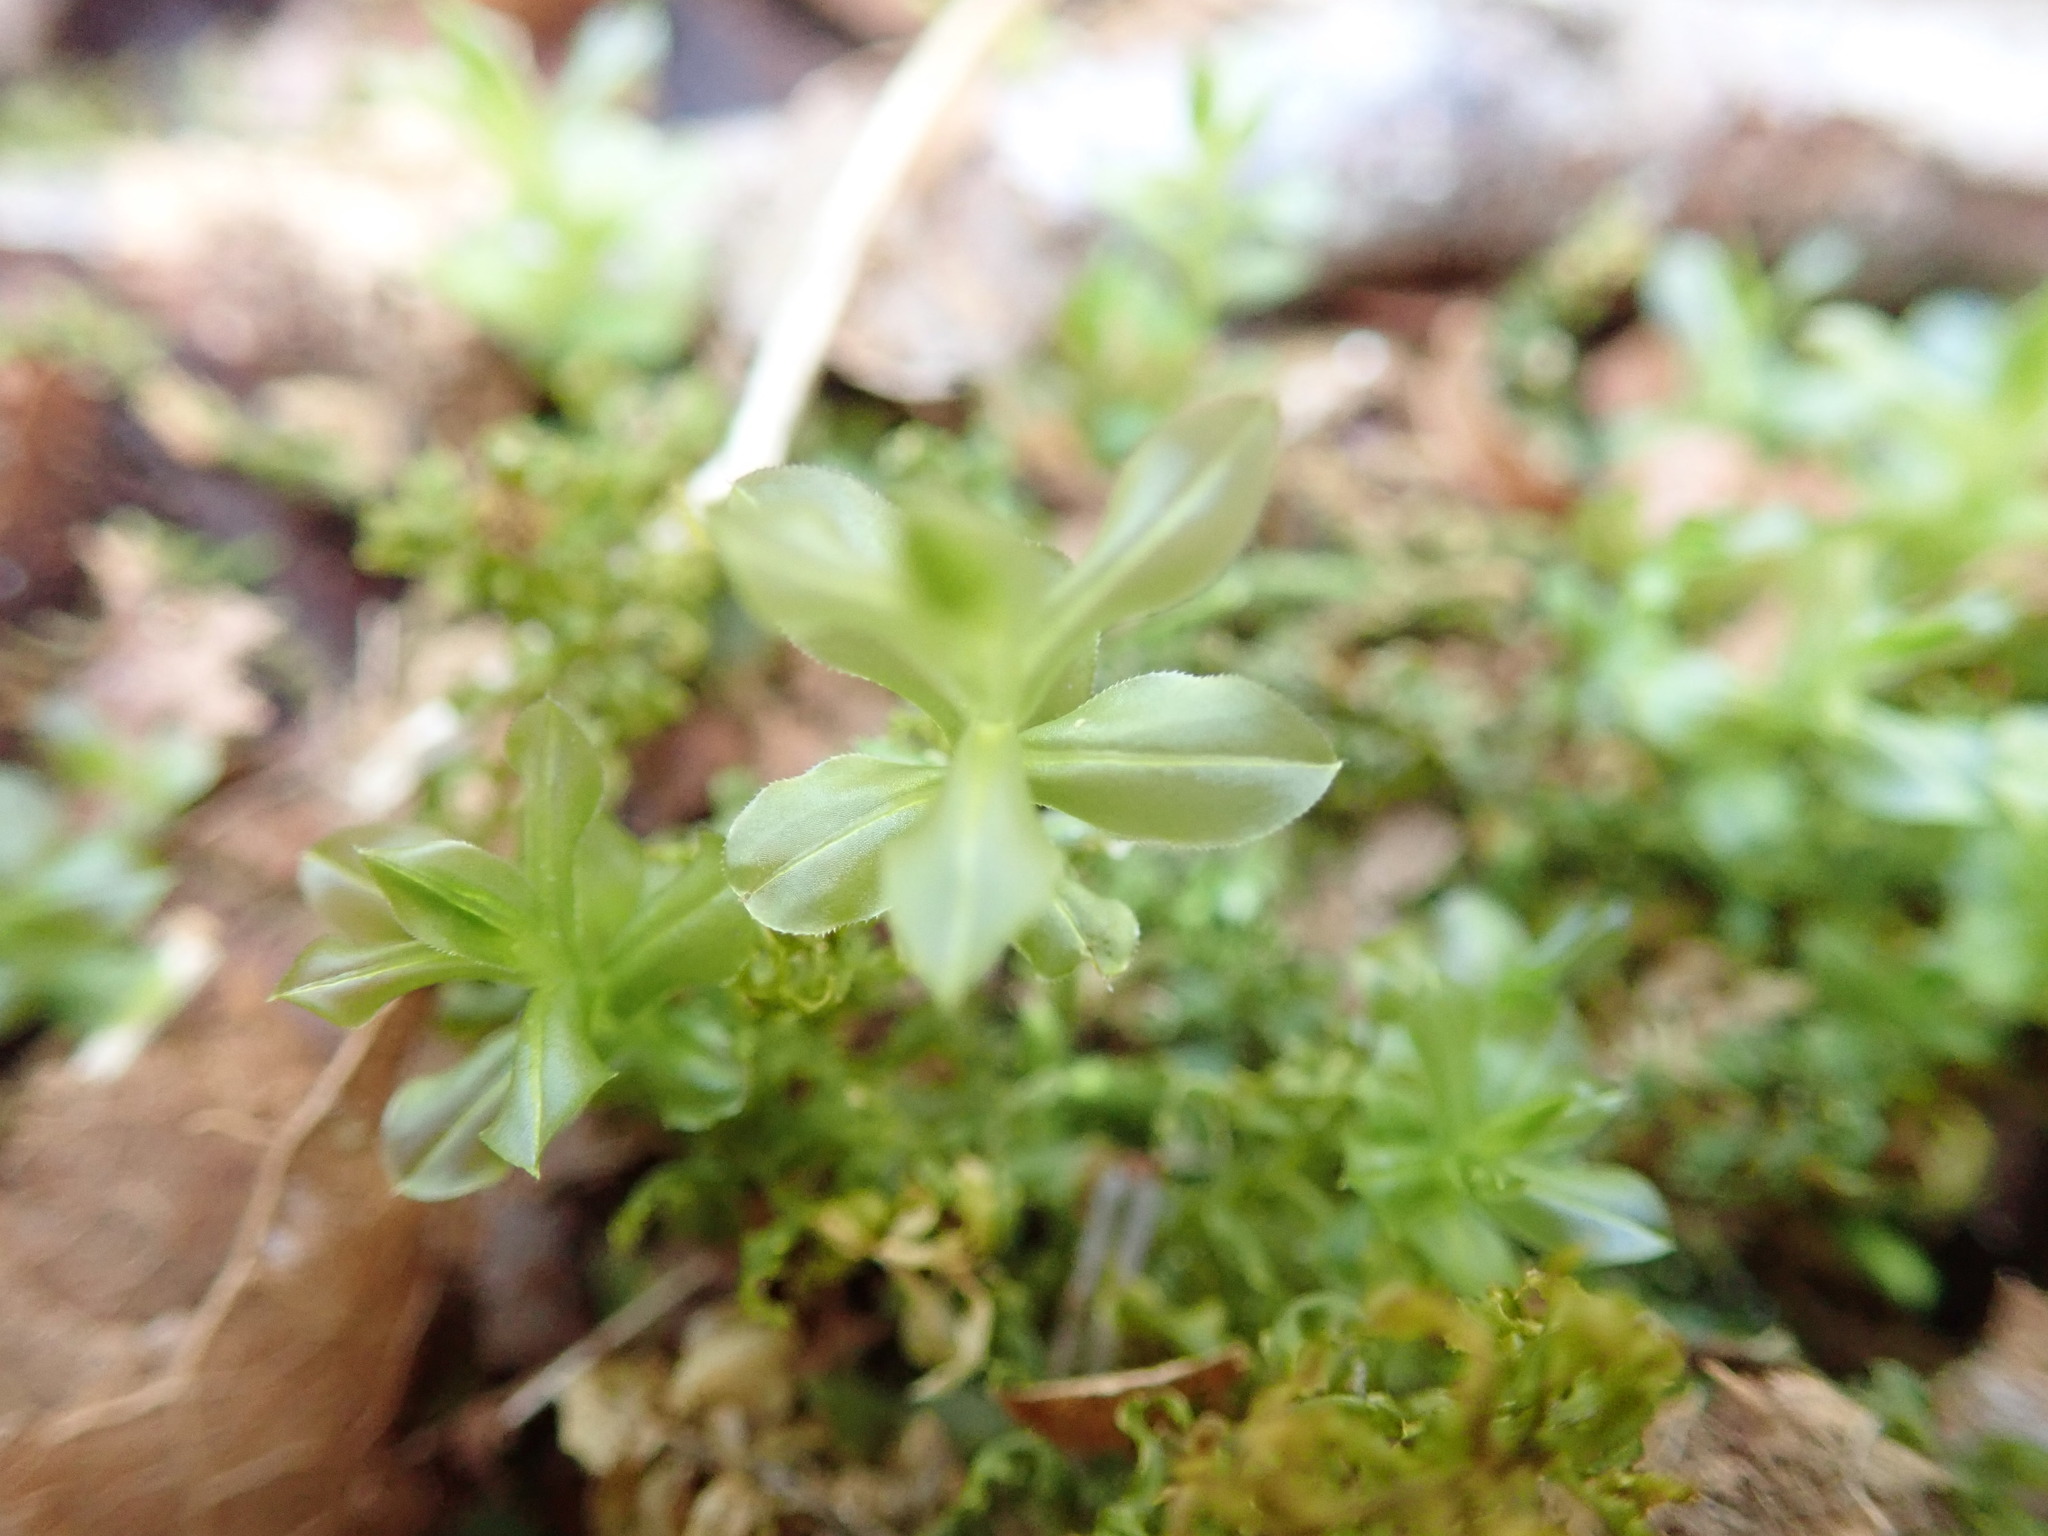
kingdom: Plantae
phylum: Bryophyta
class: Bryopsida
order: Bryales
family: Mniaceae
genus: Plagiomnium
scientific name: Plagiomnium insigne
